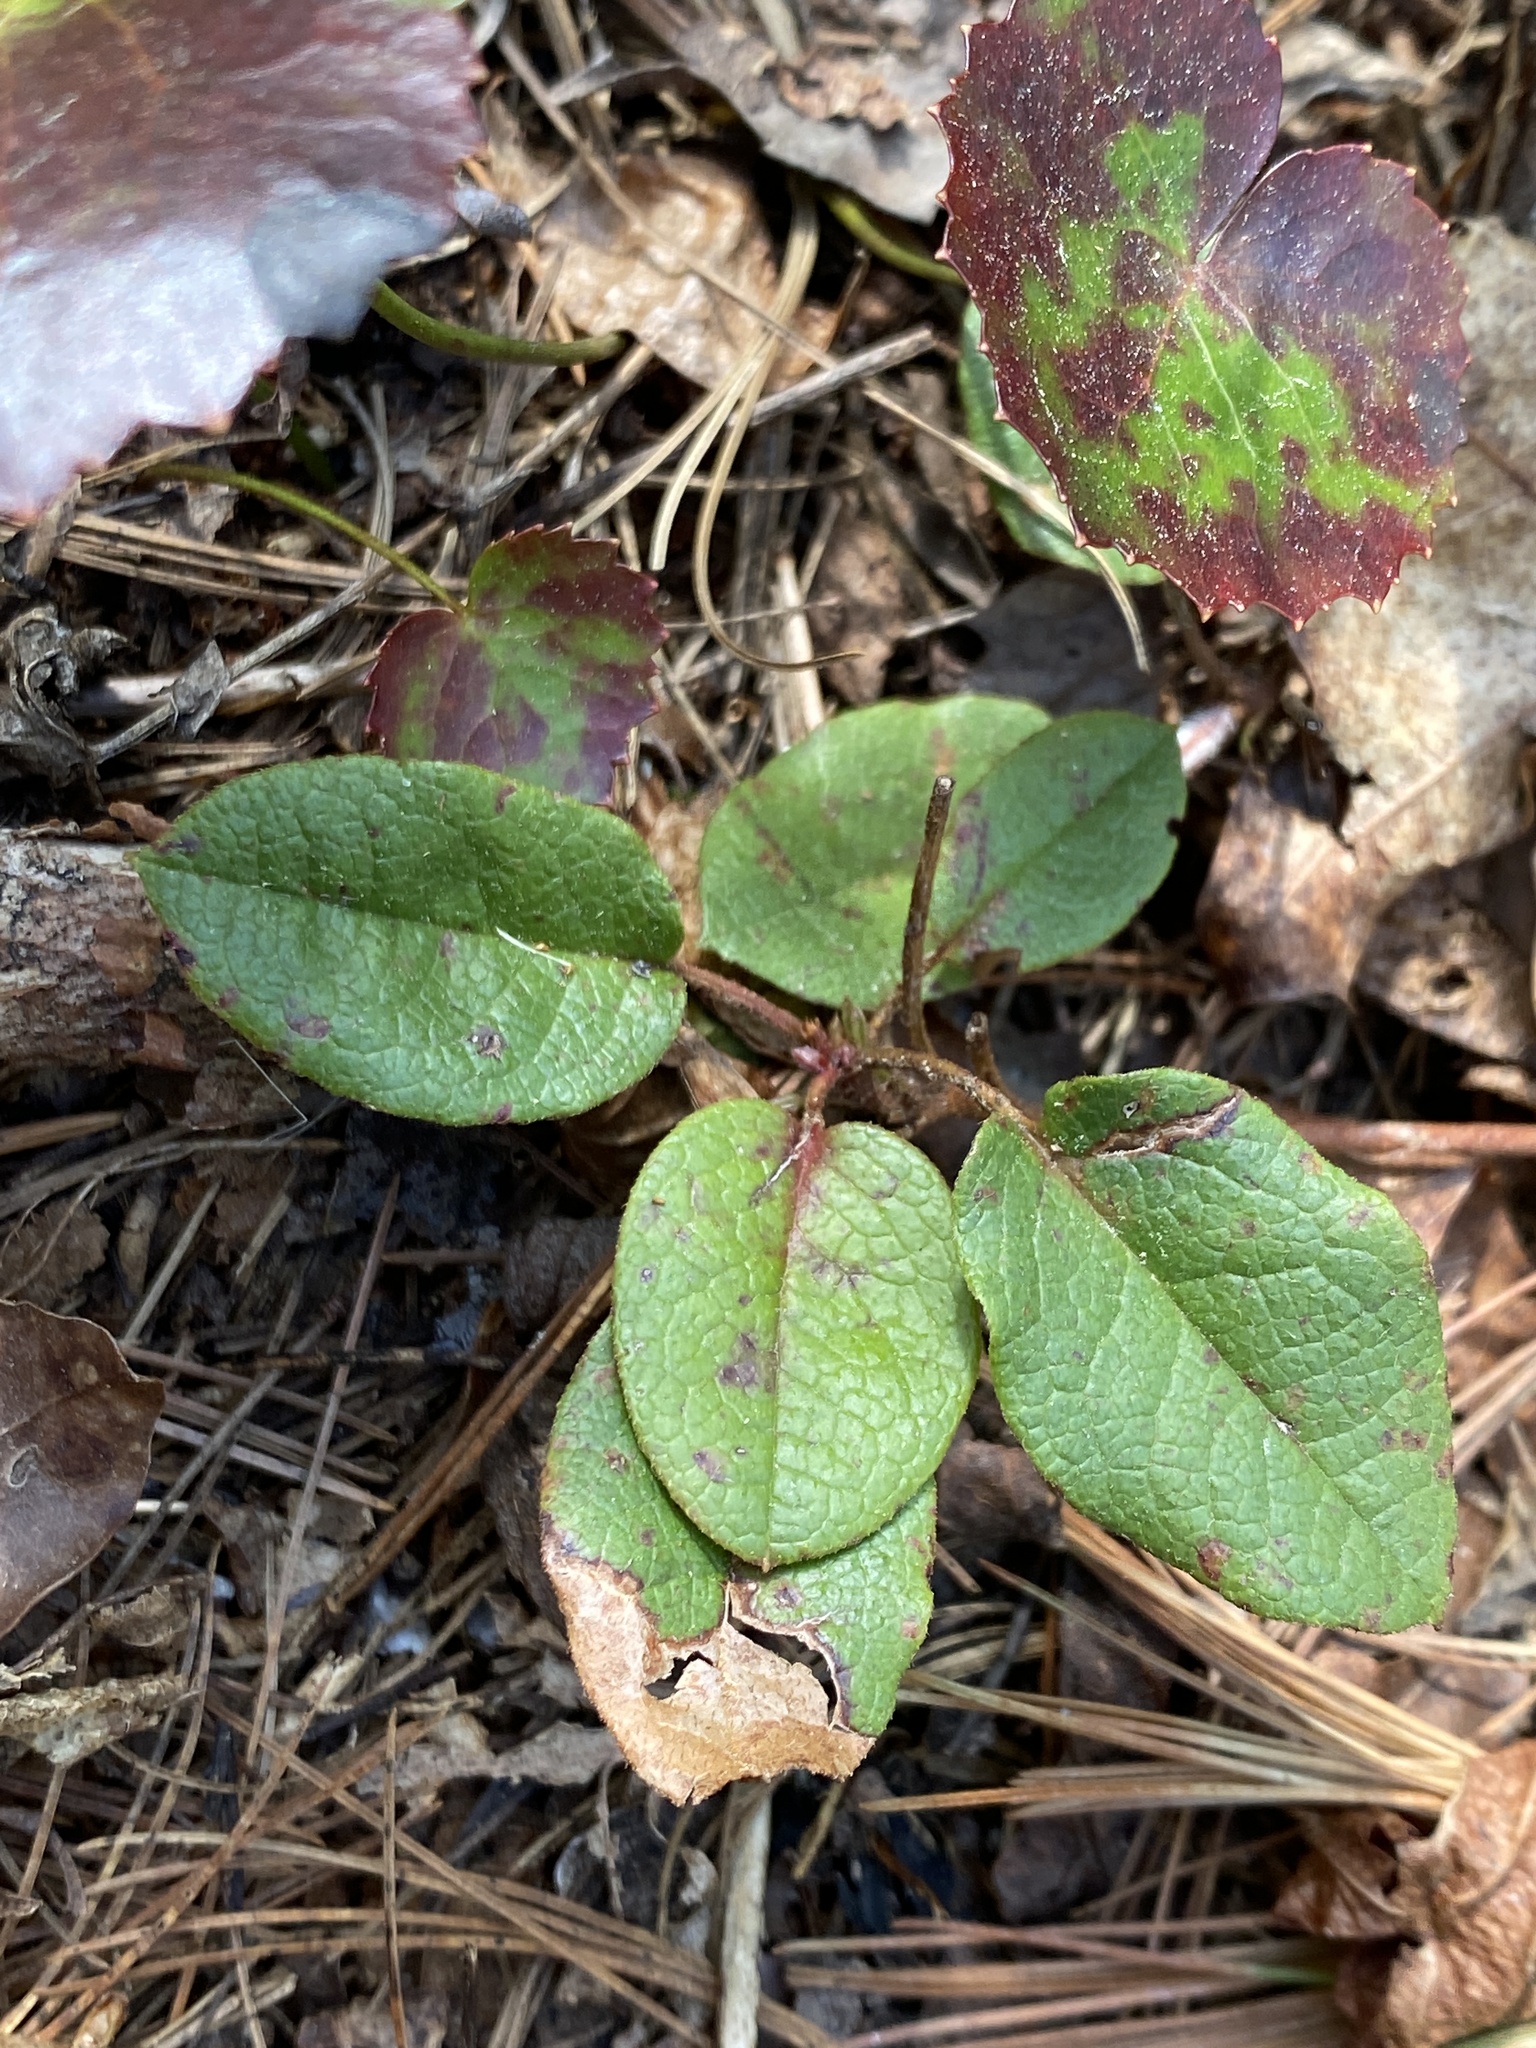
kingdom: Plantae
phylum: Tracheophyta
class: Magnoliopsida
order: Ericales
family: Ericaceae
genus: Epigaea
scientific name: Epigaea repens
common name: Gravelroot
